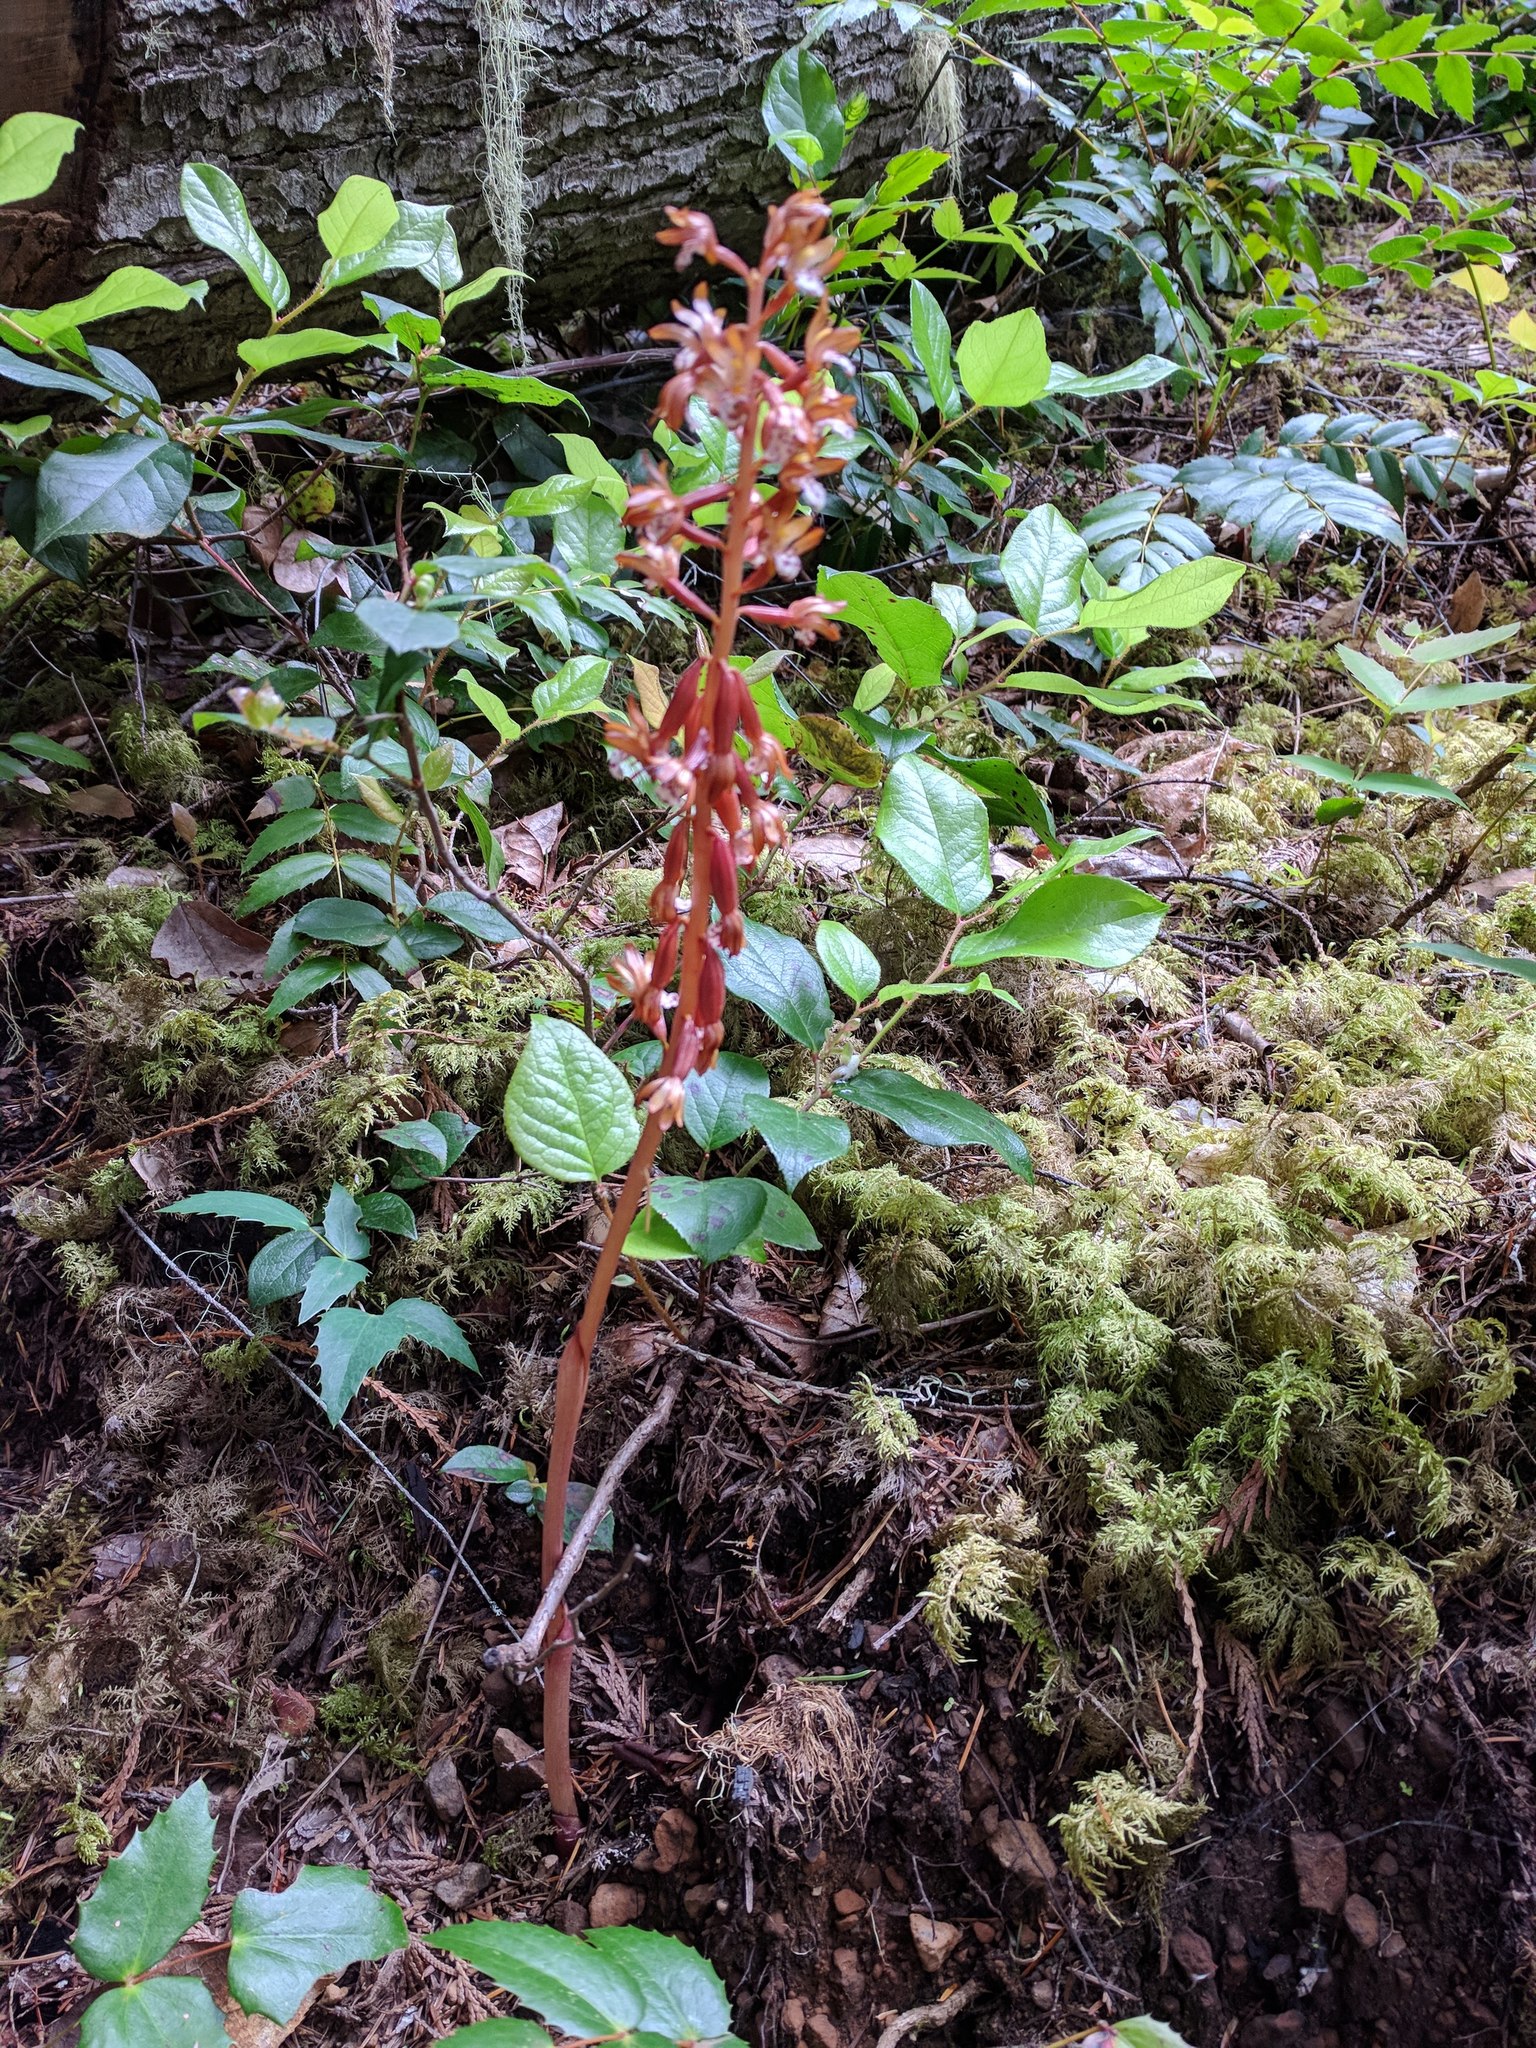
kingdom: Plantae
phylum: Tracheophyta
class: Liliopsida
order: Asparagales
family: Orchidaceae
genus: Corallorhiza
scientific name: Corallorhiza maculata
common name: Spotted coralroot
